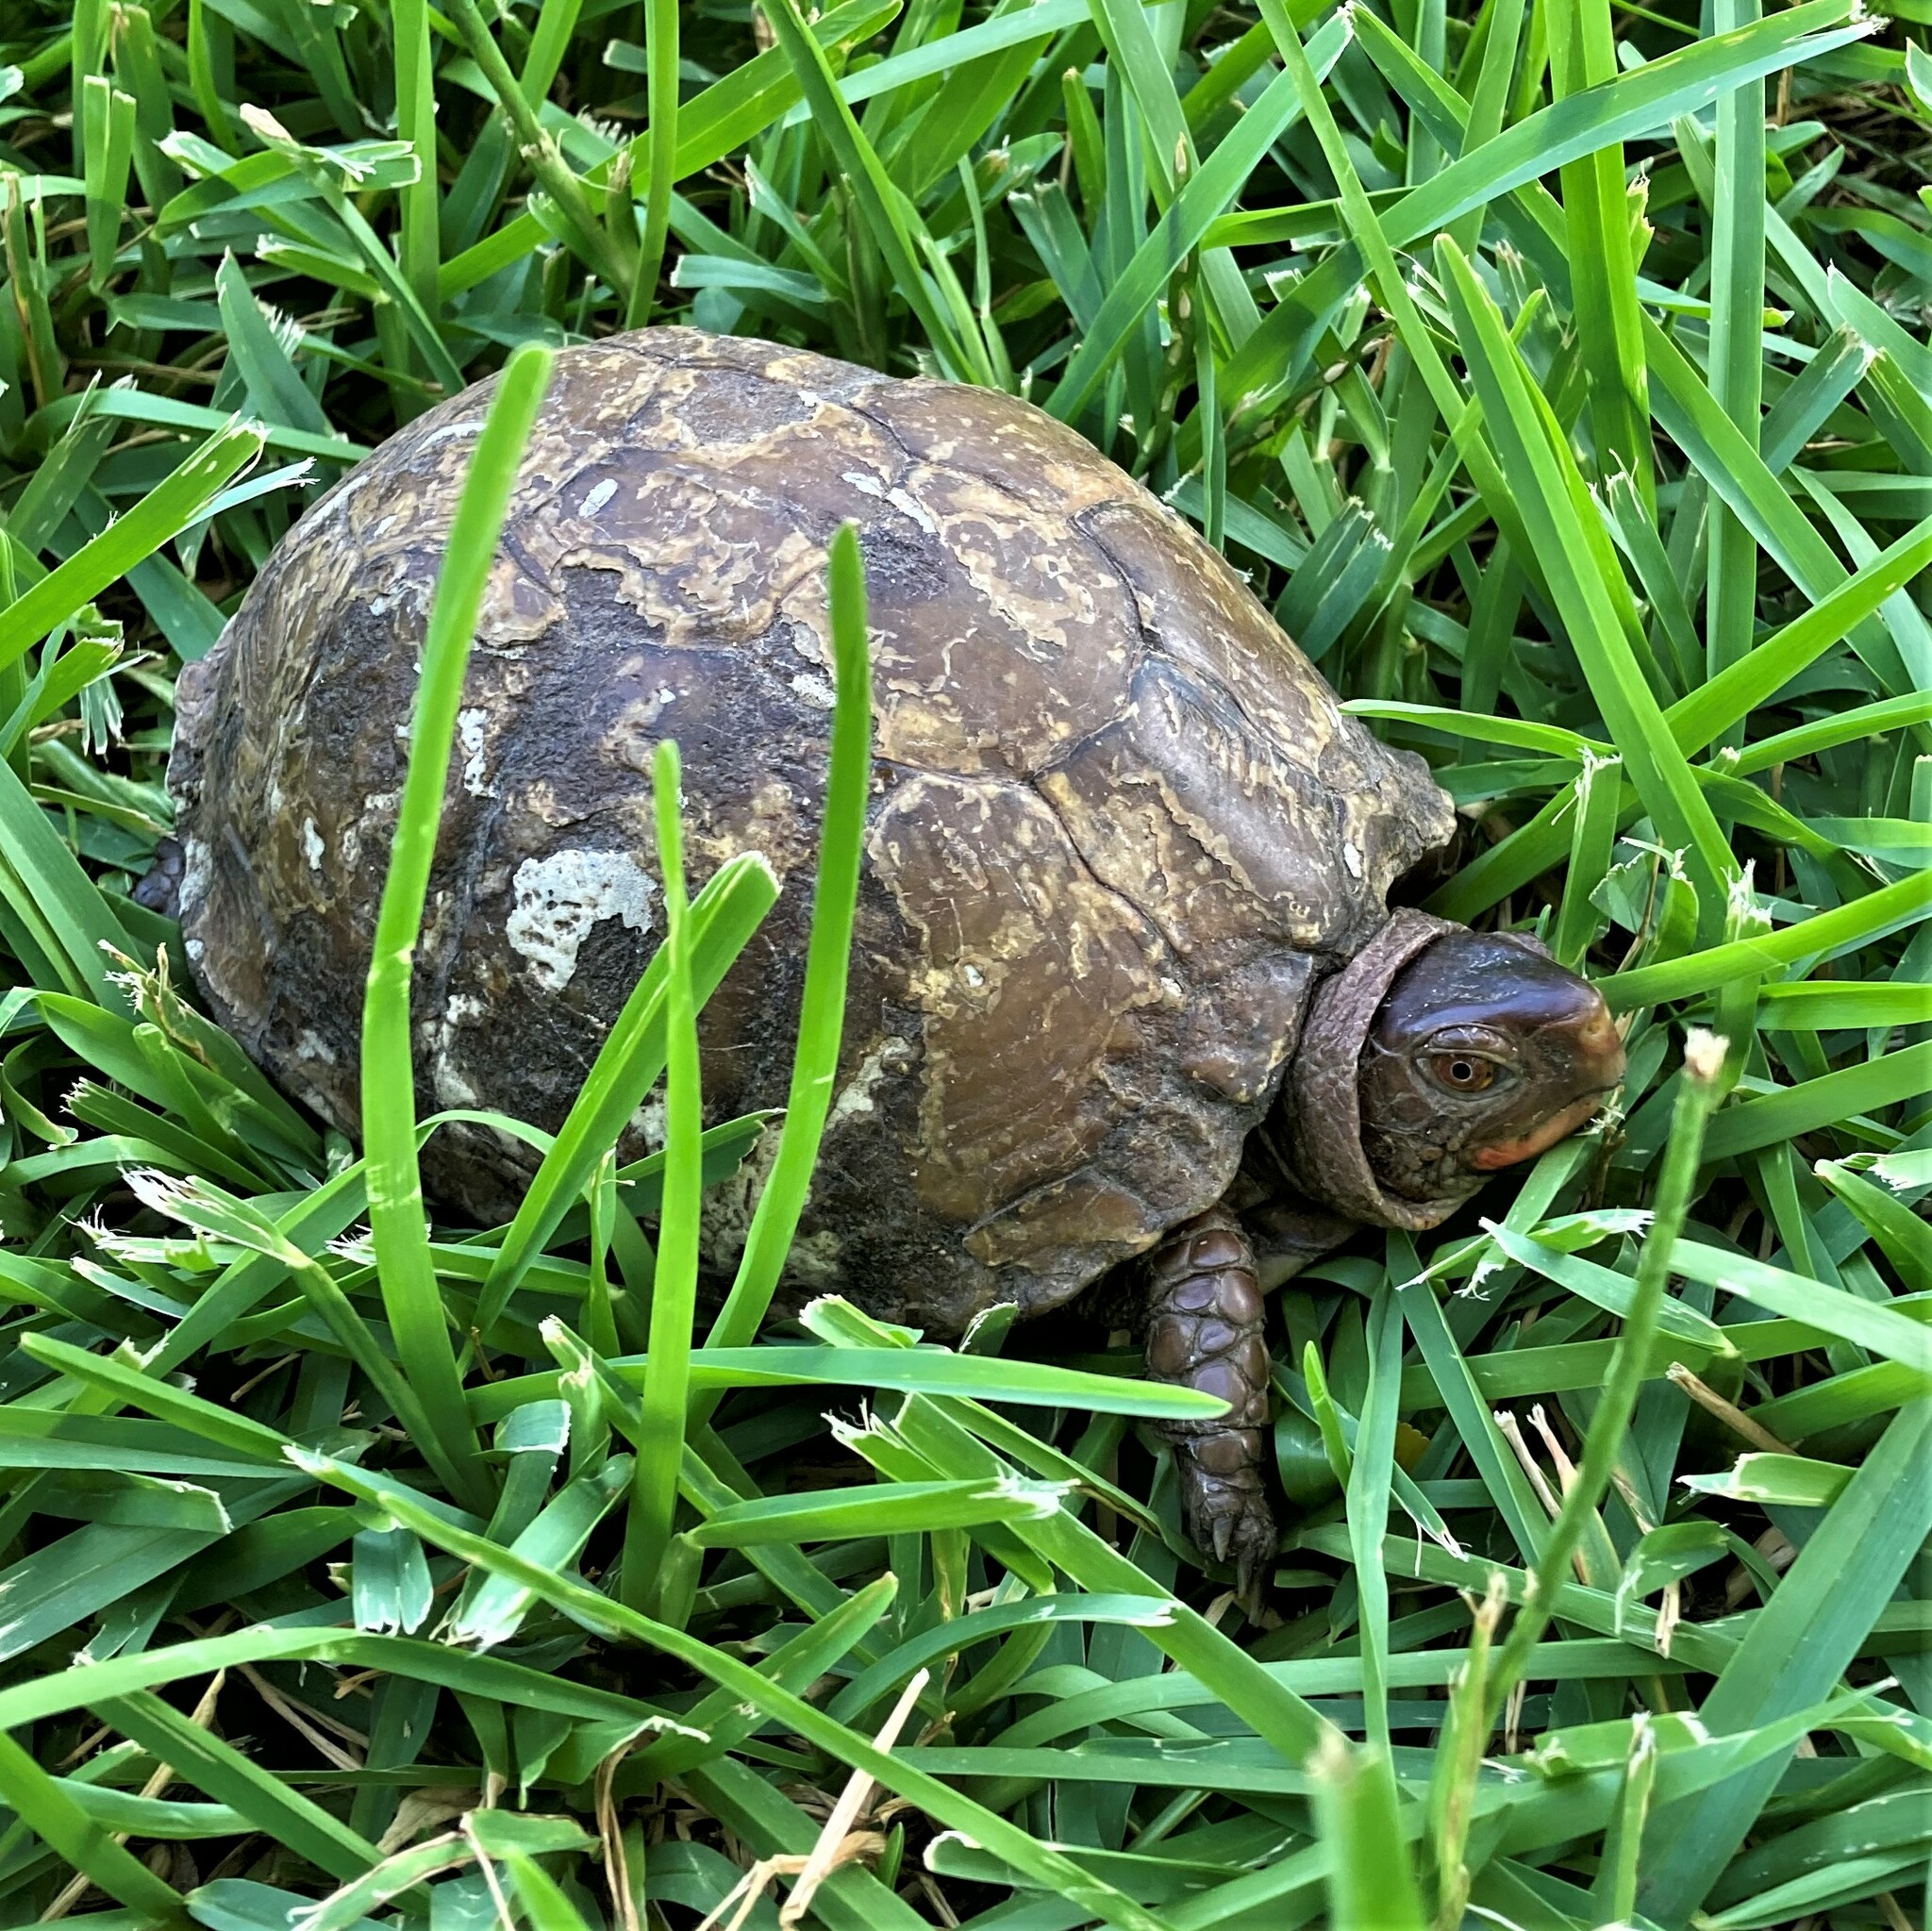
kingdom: Animalia
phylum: Chordata
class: Testudines
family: Emydidae
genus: Terrapene
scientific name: Terrapene carolina
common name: Common box turtle
